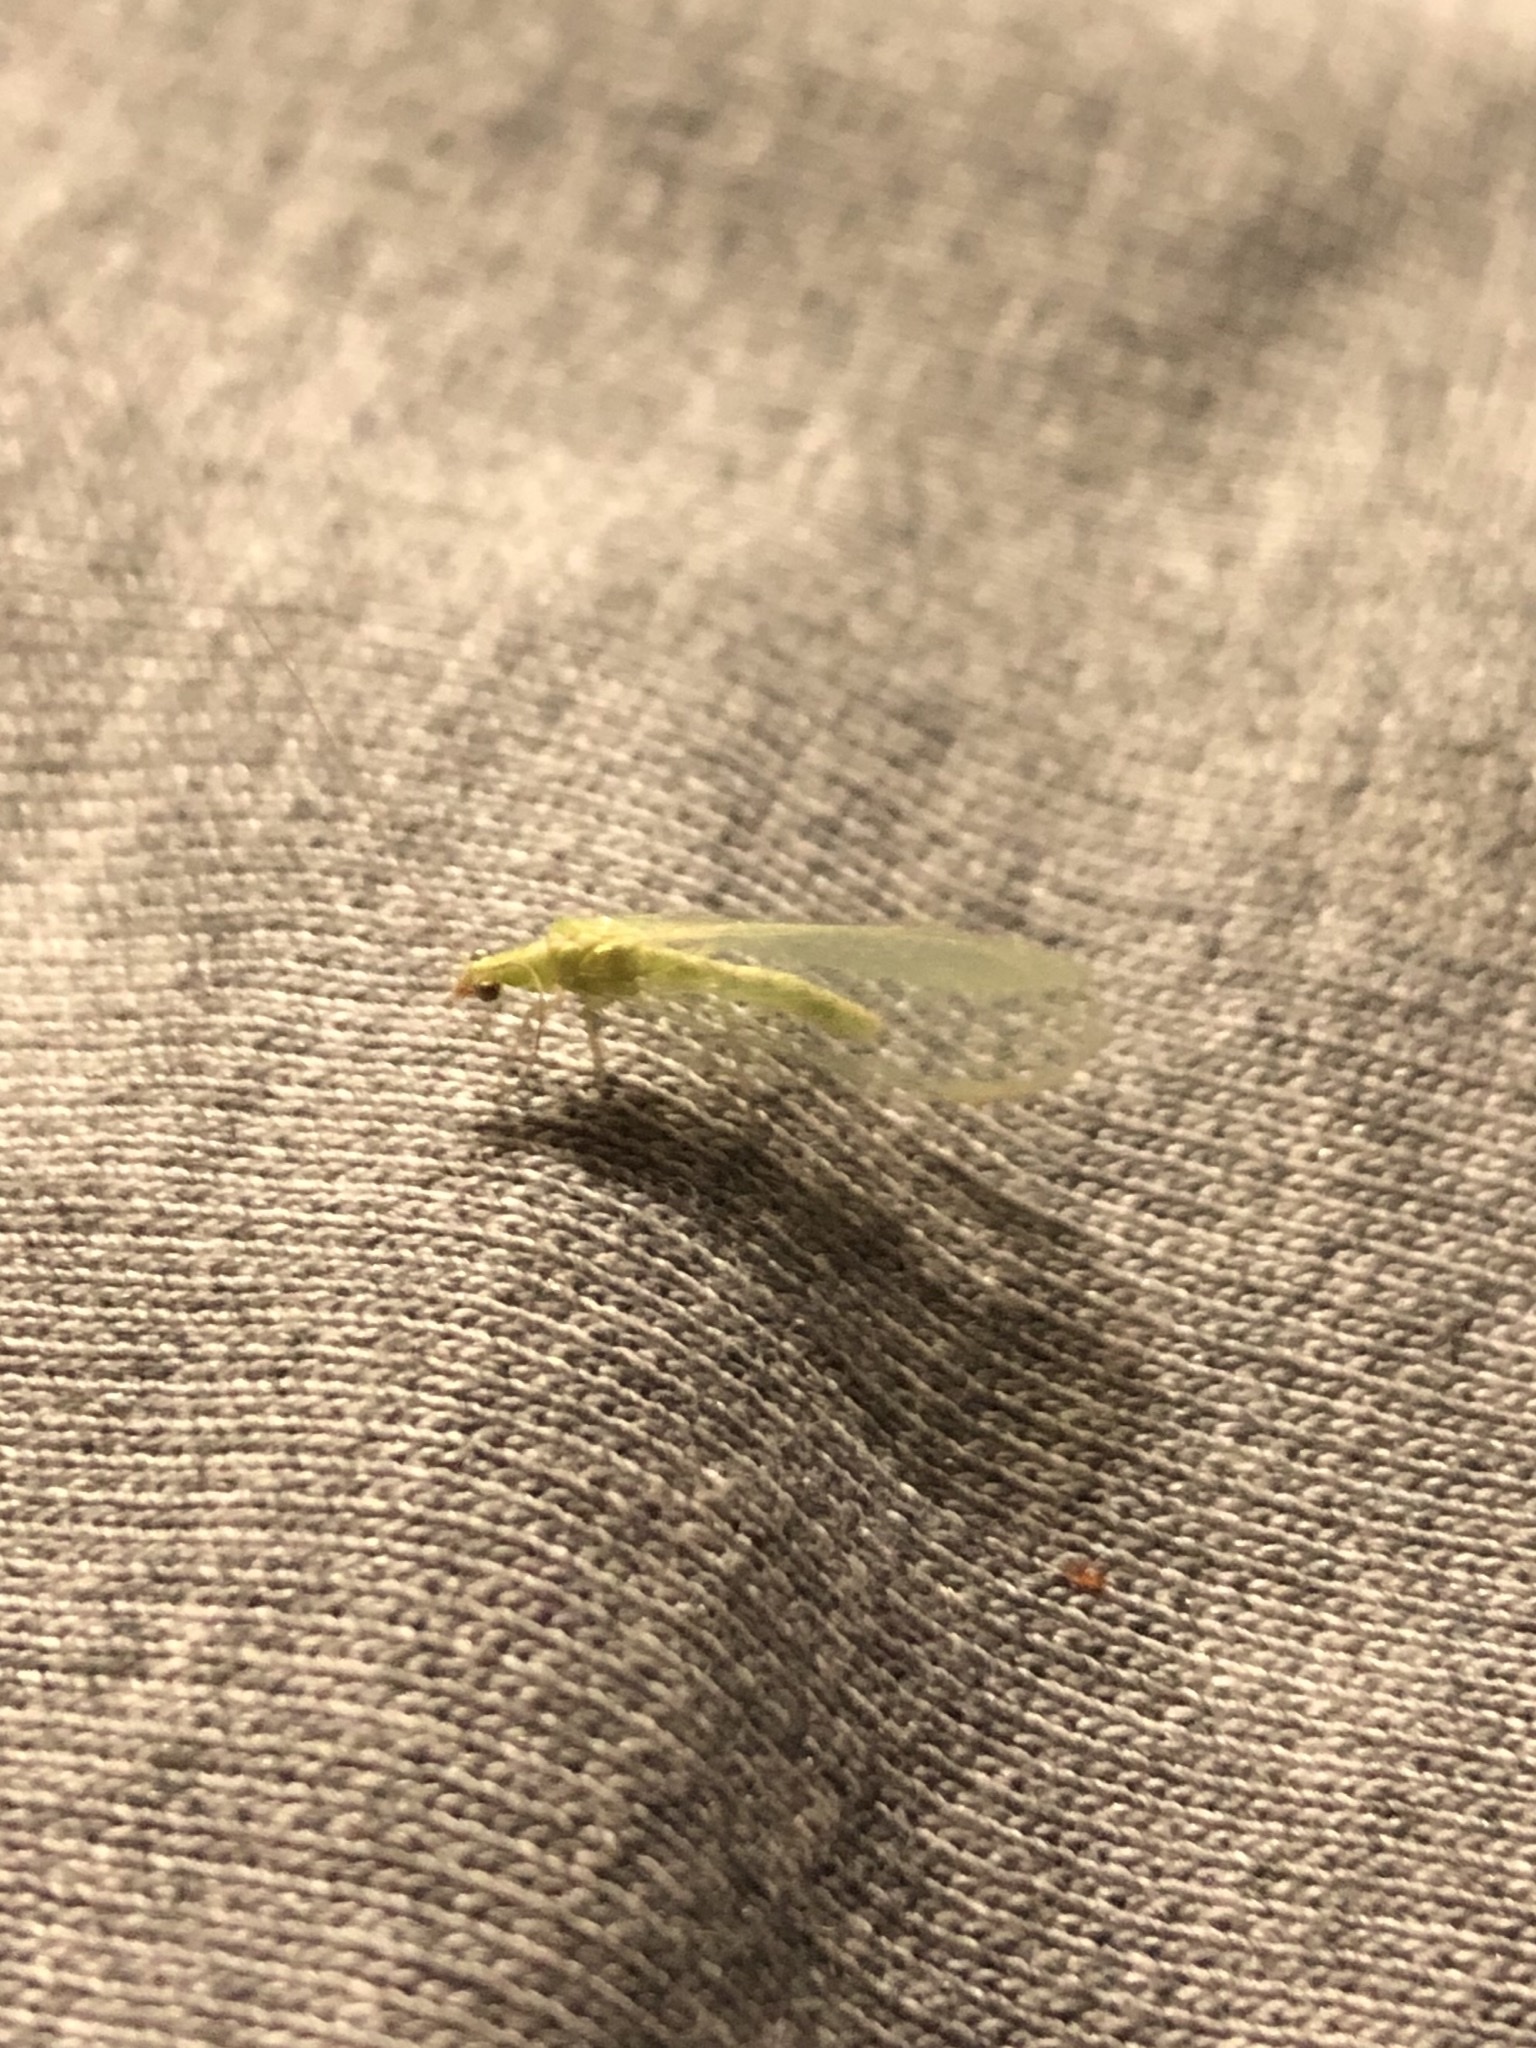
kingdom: Animalia
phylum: Arthropoda
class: Insecta
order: Neuroptera
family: Chrysopidae
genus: Chrysoperla
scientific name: Chrysoperla
